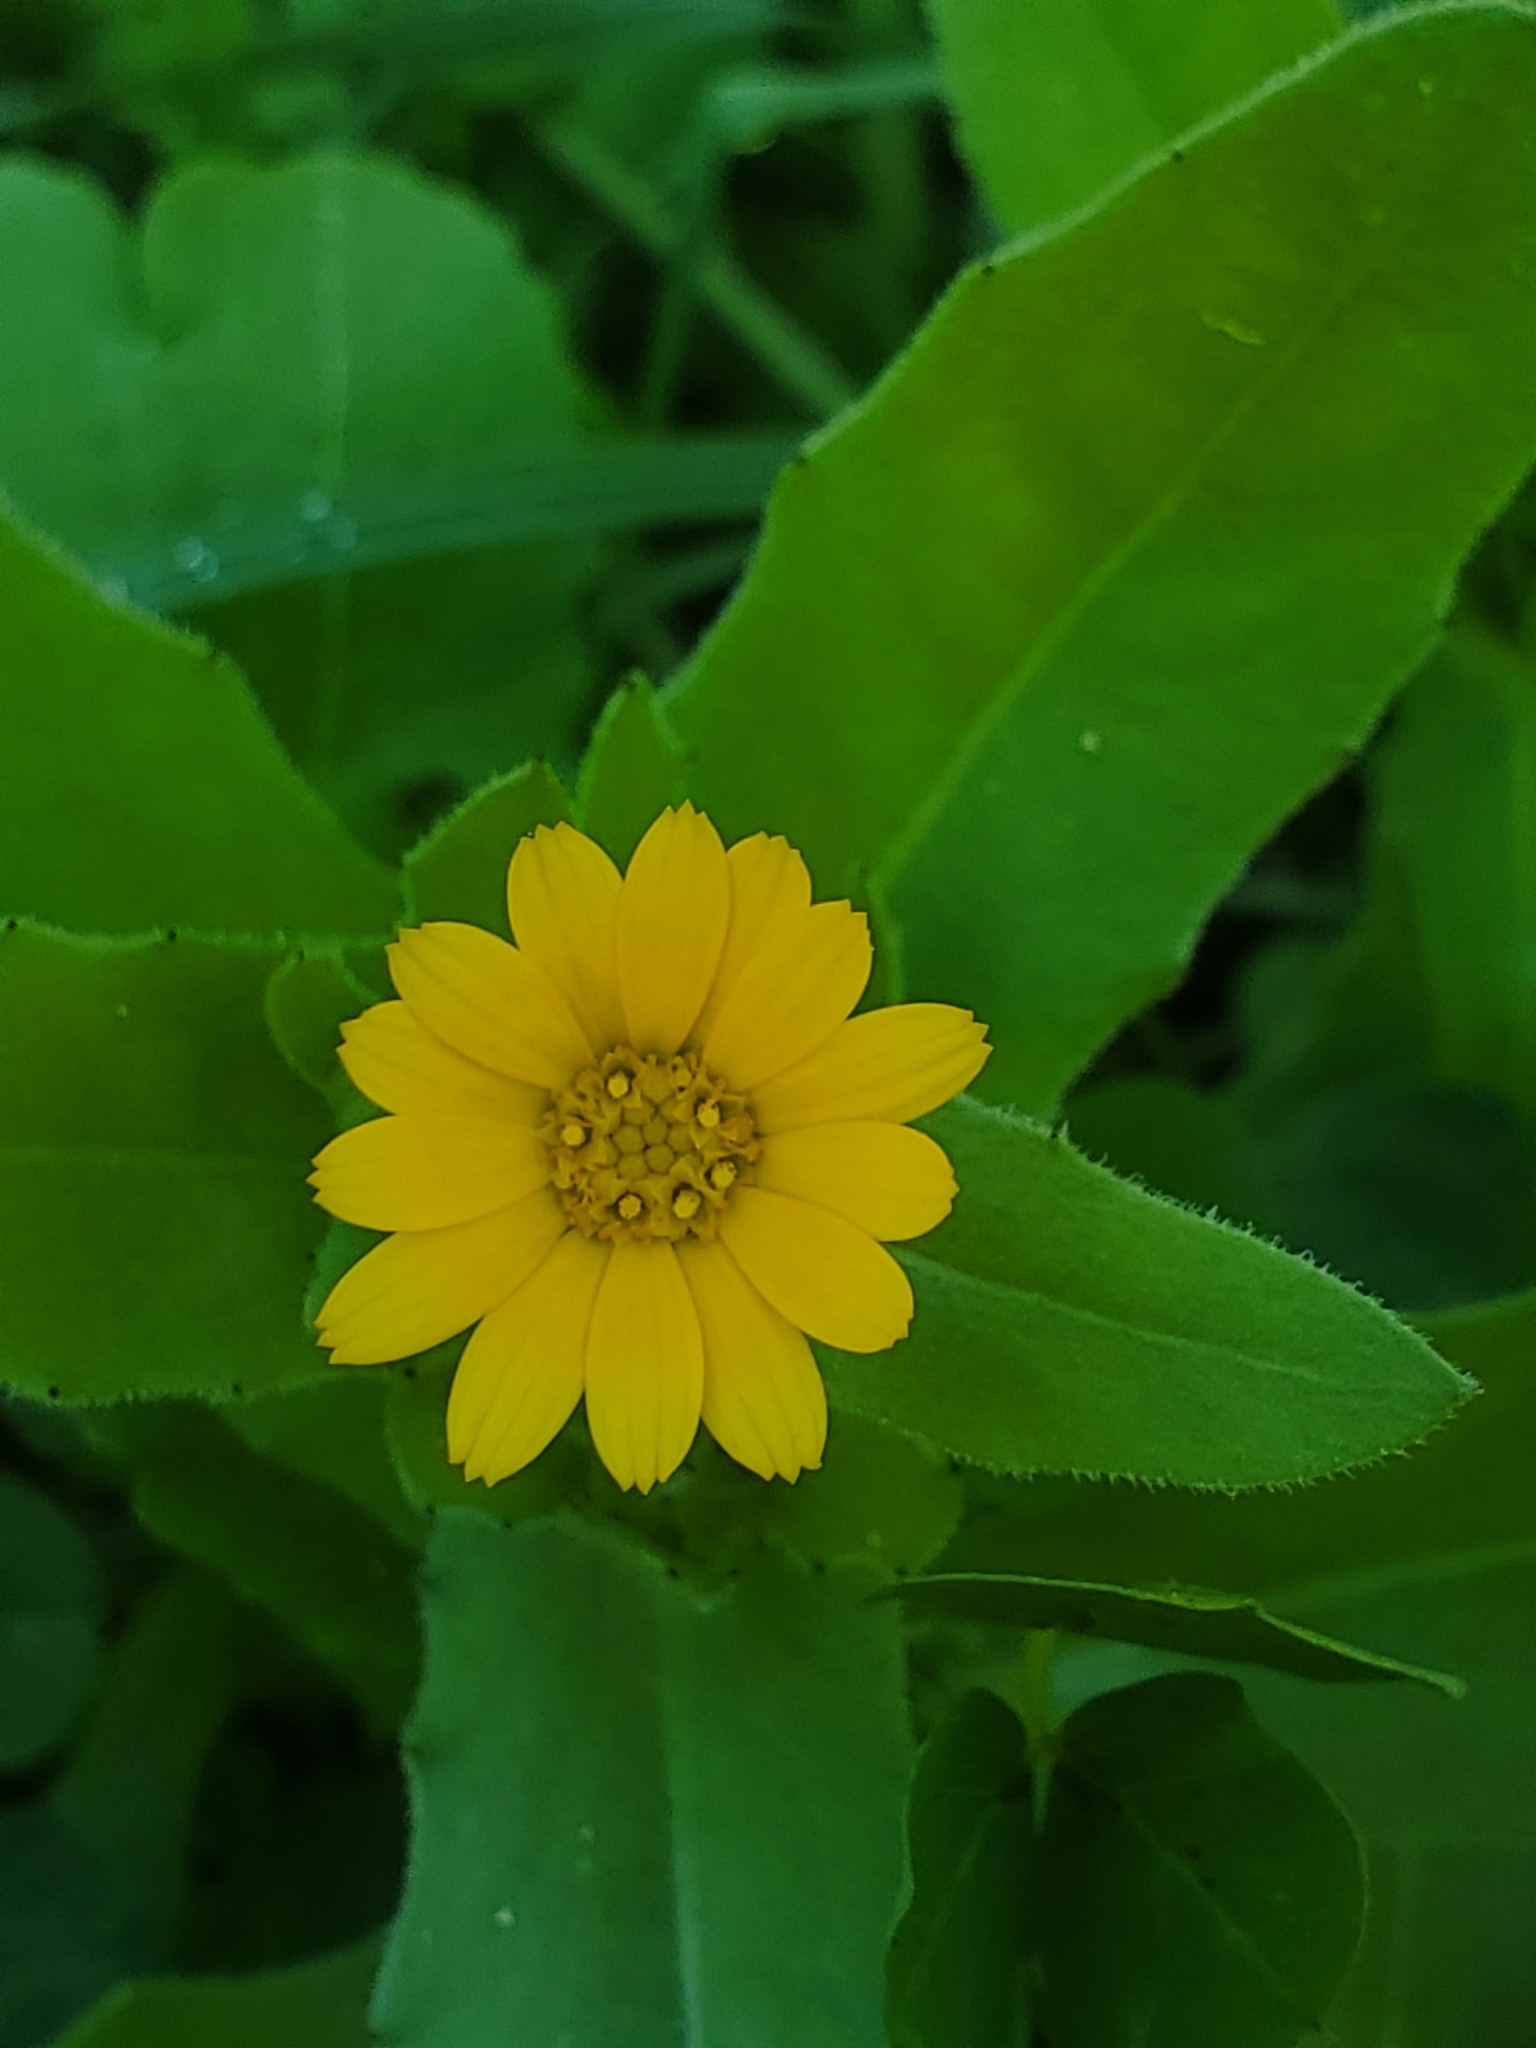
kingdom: Plantae
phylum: Tracheophyta
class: Magnoliopsida
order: Asterales
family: Asteraceae
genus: Calendula
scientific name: Calendula arvensis
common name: Field marigold
